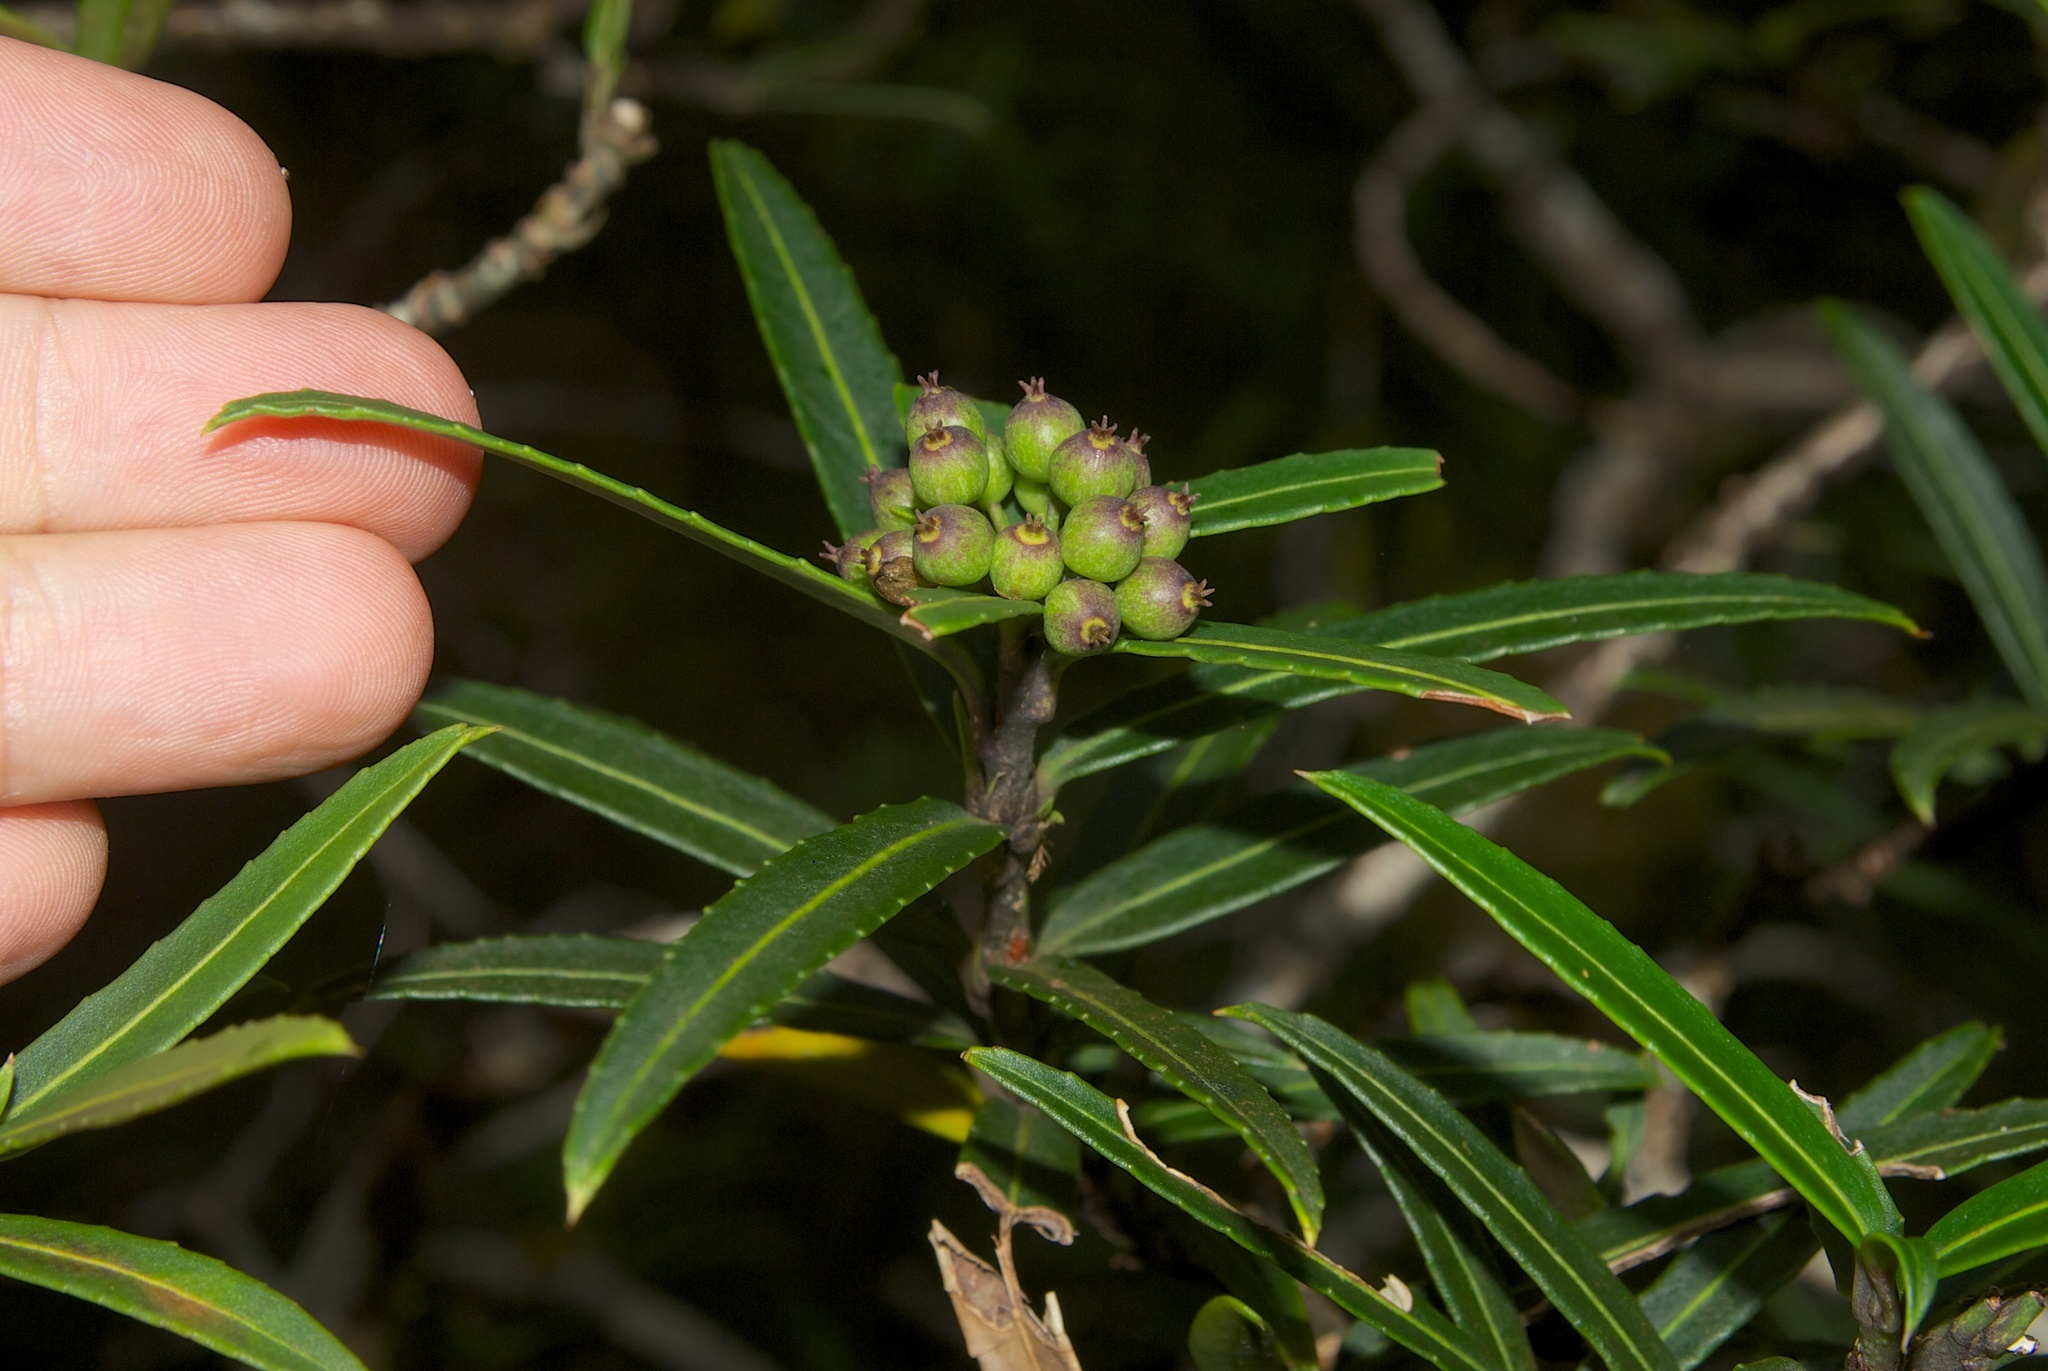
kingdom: Plantae
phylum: Tracheophyta
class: Magnoliopsida
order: Apiales
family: Araliaceae
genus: Pseudopanax
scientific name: Pseudopanax linearis
